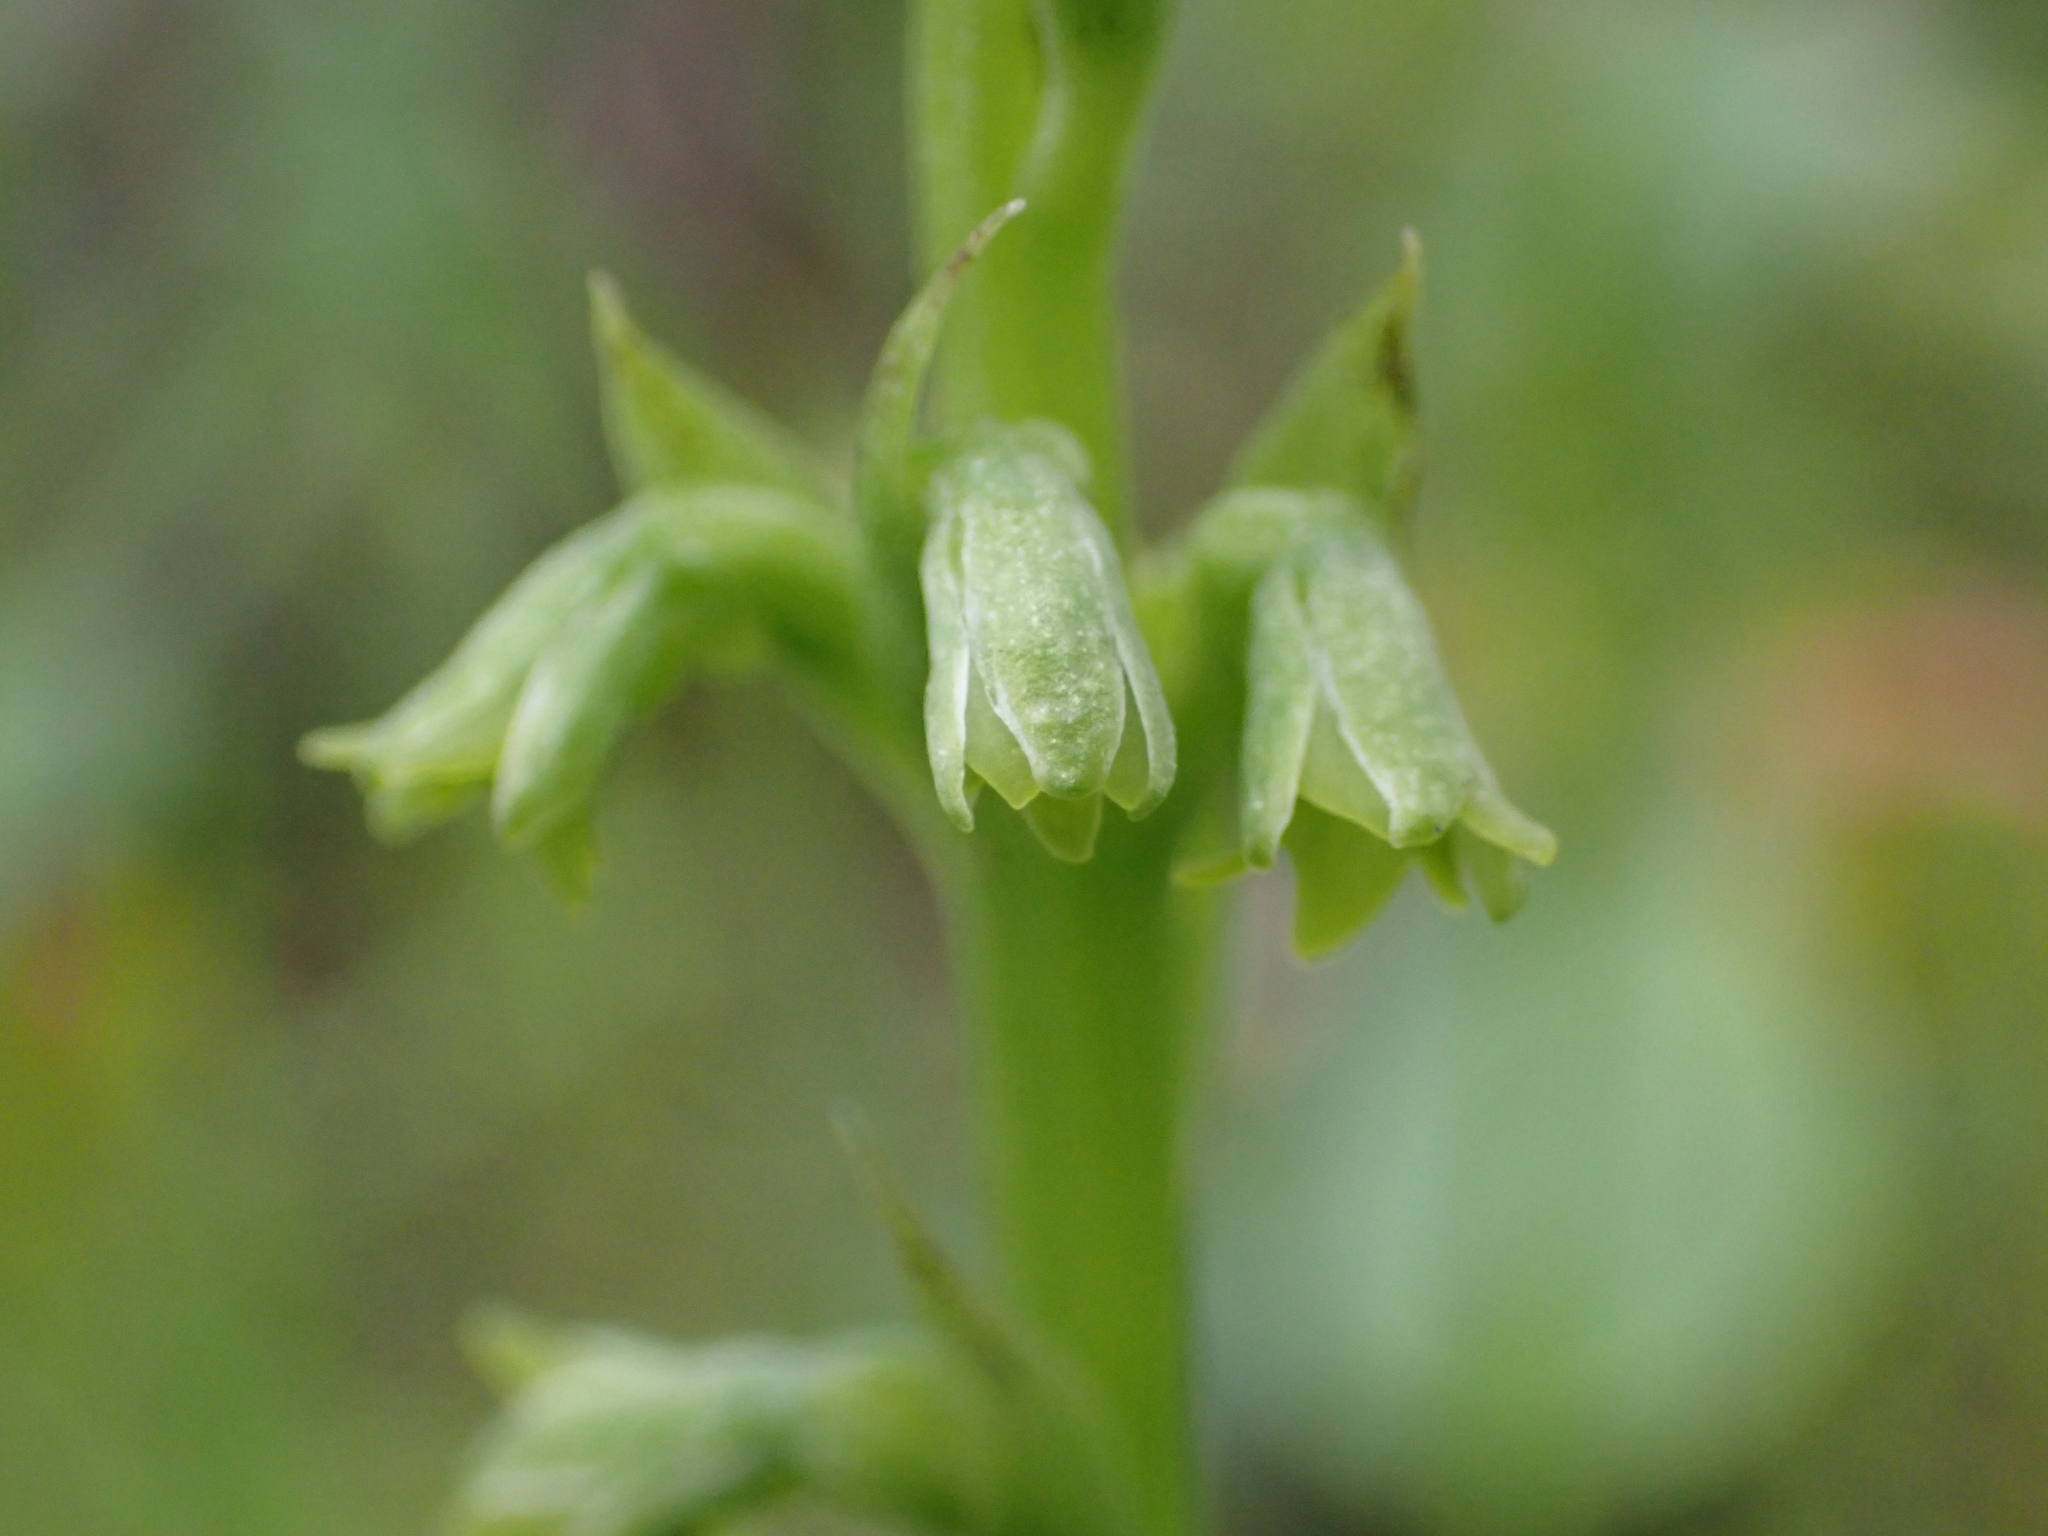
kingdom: Plantae
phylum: Tracheophyta
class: Liliopsida
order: Asparagales
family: Orchidaceae
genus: Gennaria
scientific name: Gennaria diphylla
